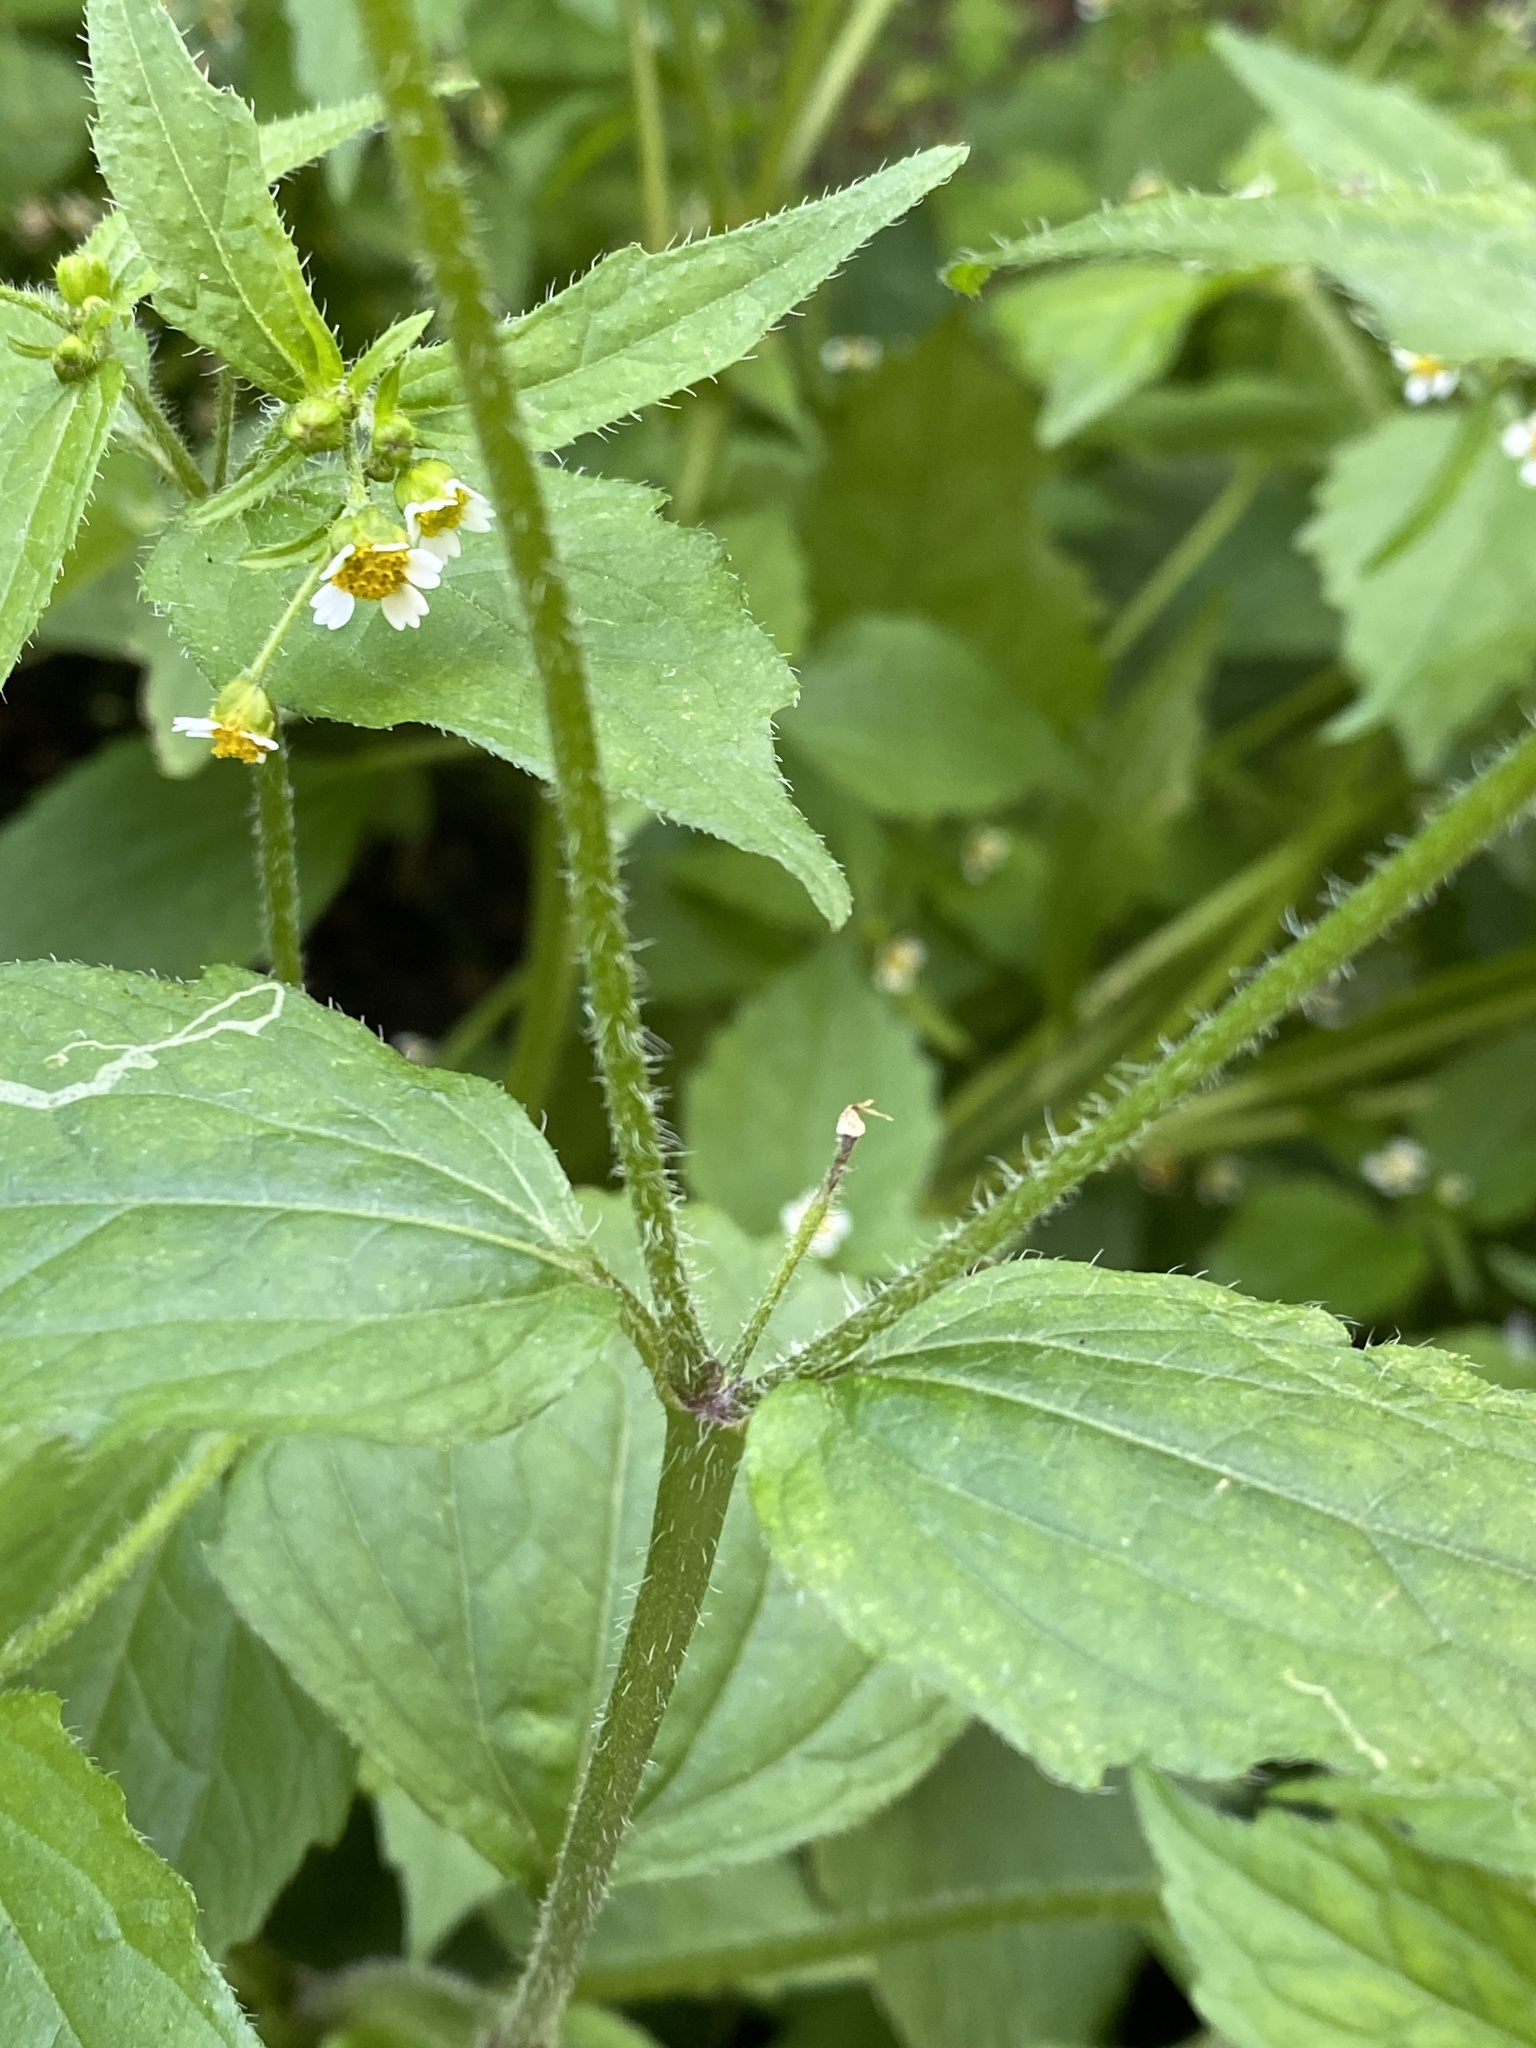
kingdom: Plantae
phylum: Tracheophyta
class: Magnoliopsida
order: Asterales
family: Asteraceae
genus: Galinsoga
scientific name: Galinsoga quadriradiata
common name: Shaggy soldier
